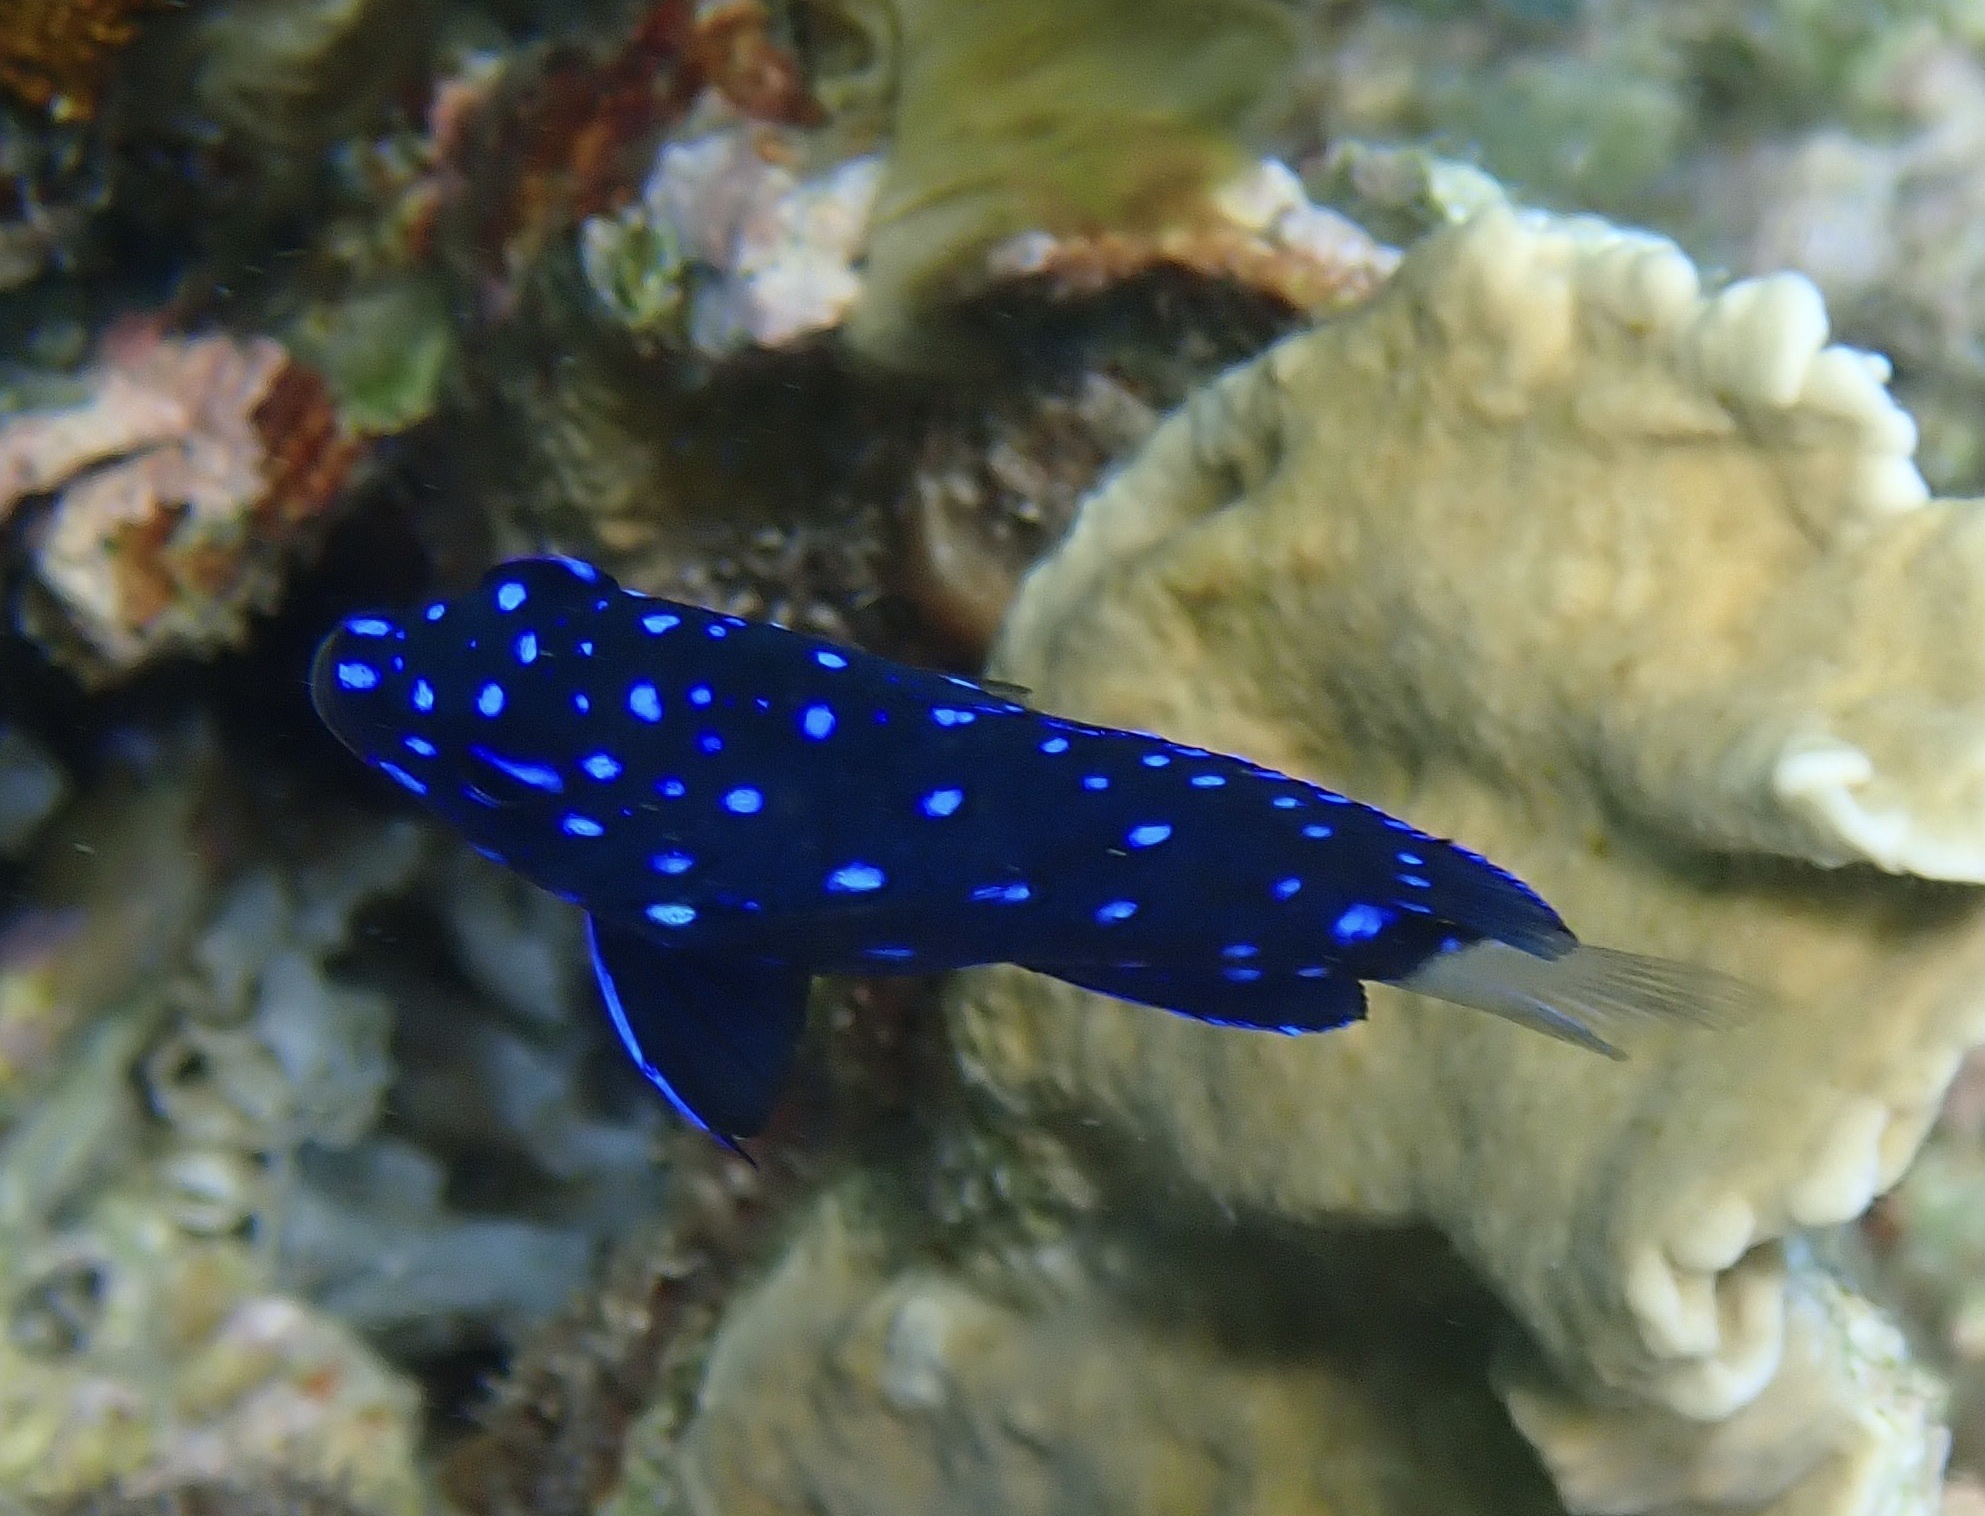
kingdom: Animalia
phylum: Chordata
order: Perciformes
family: Pomacentridae
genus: Microspathodon
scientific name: Microspathodon chrysurus
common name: Yellowtail damselfish
